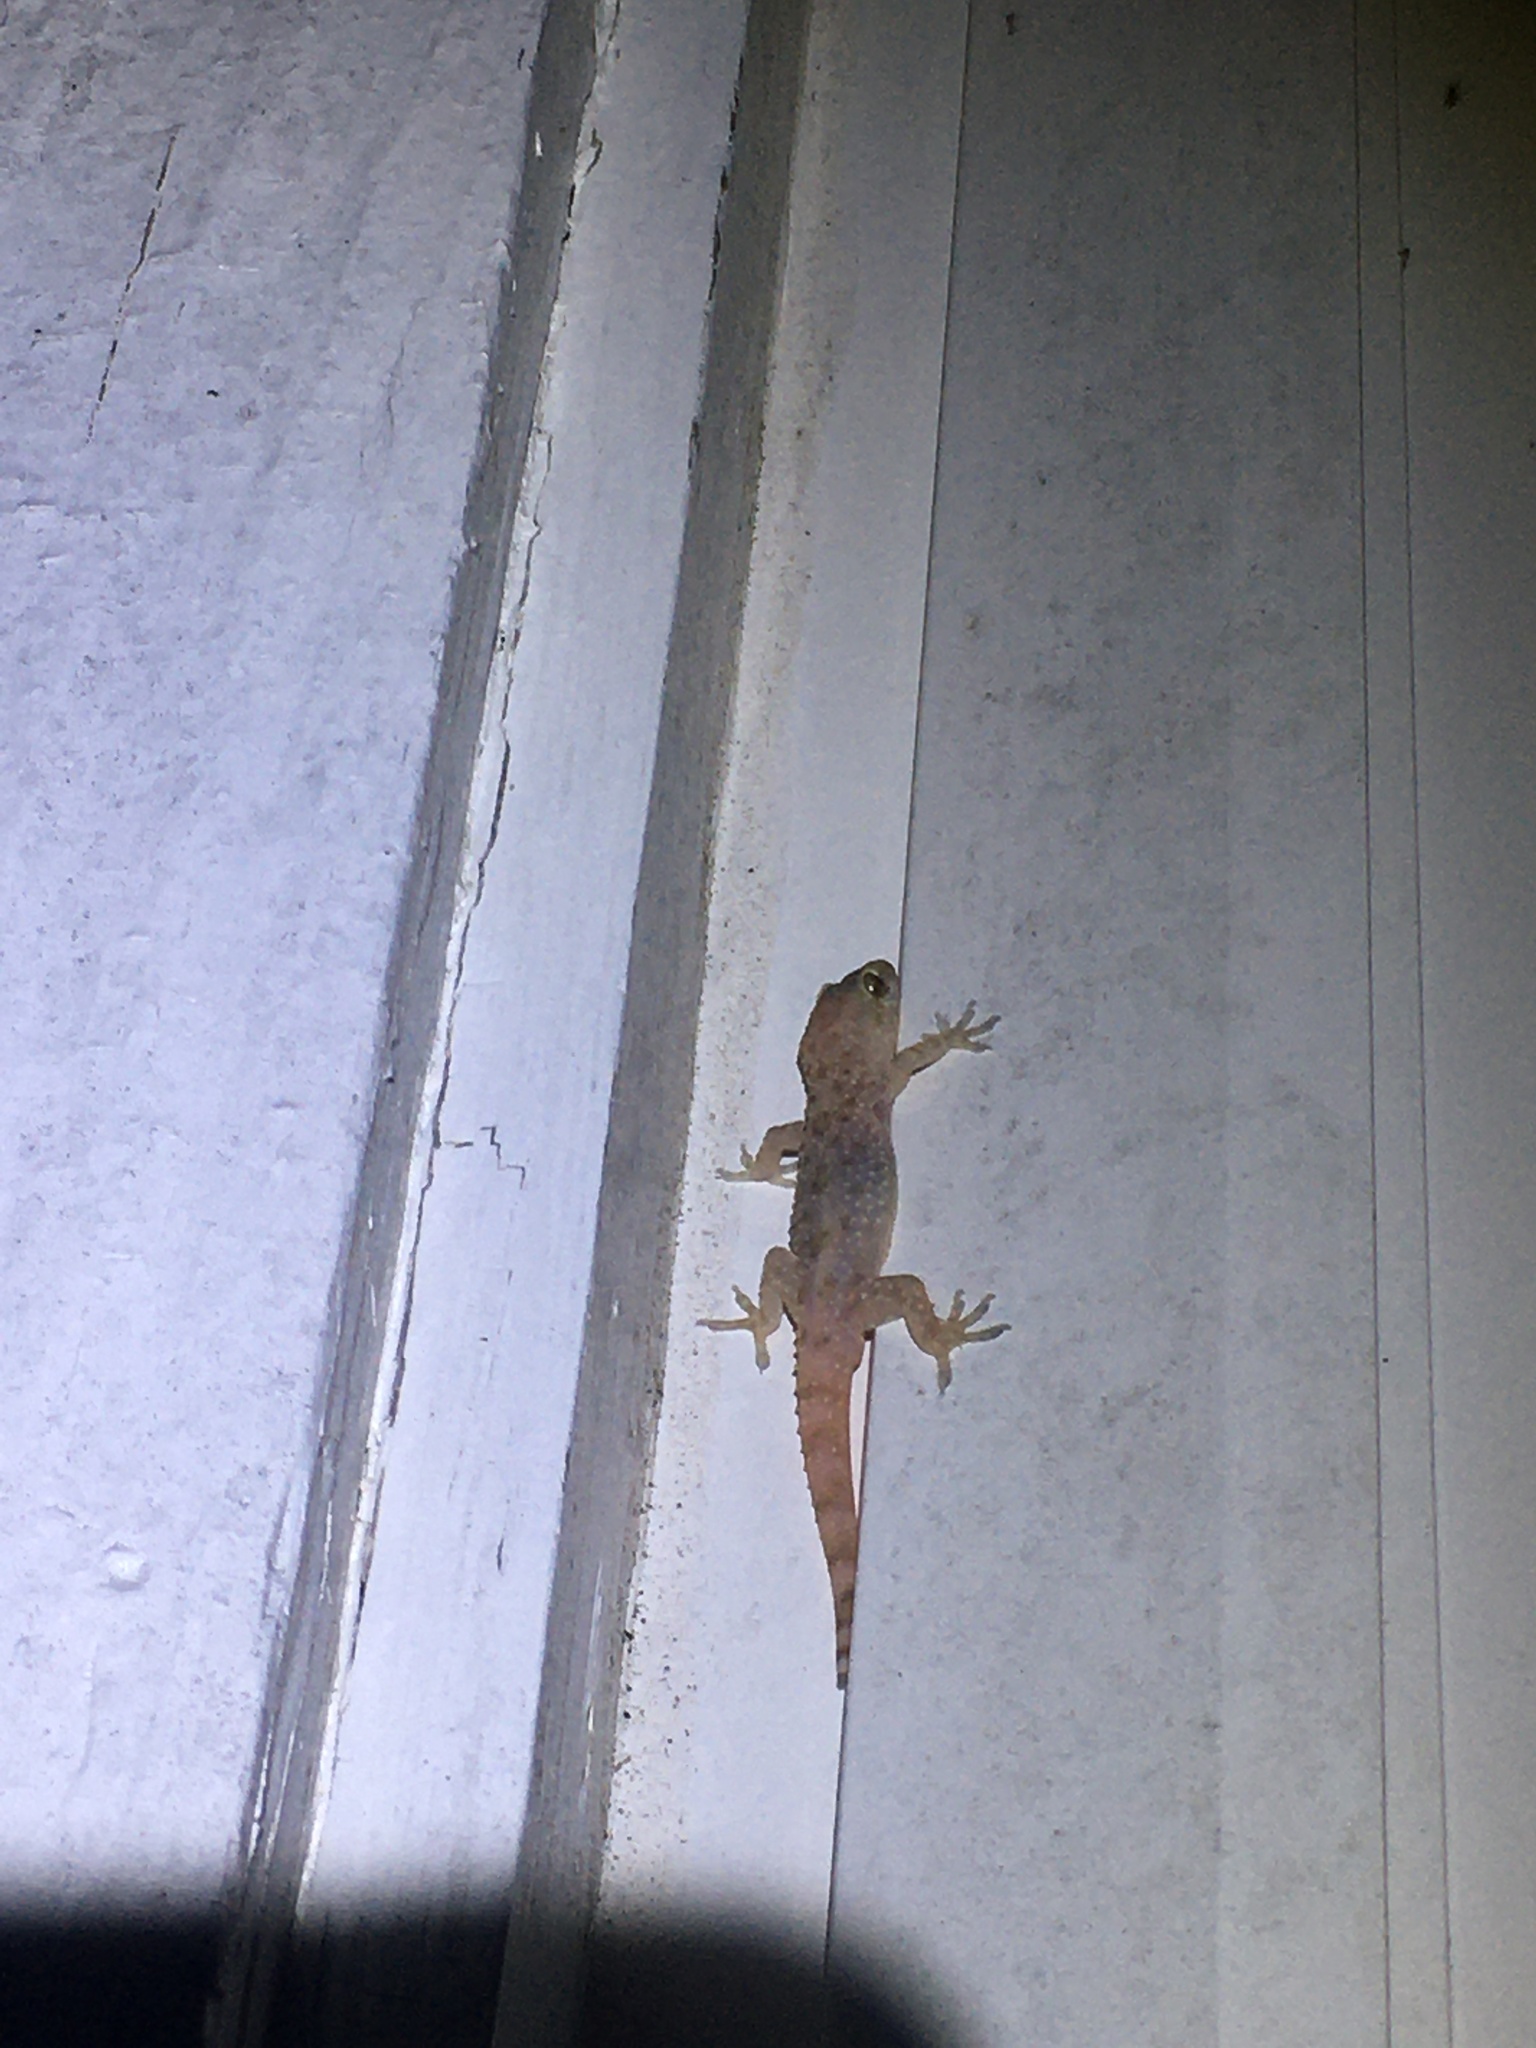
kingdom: Animalia
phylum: Chordata
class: Squamata
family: Gekkonidae
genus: Hemidactylus
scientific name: Hemidactylus turcicus
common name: Turkish gecko
